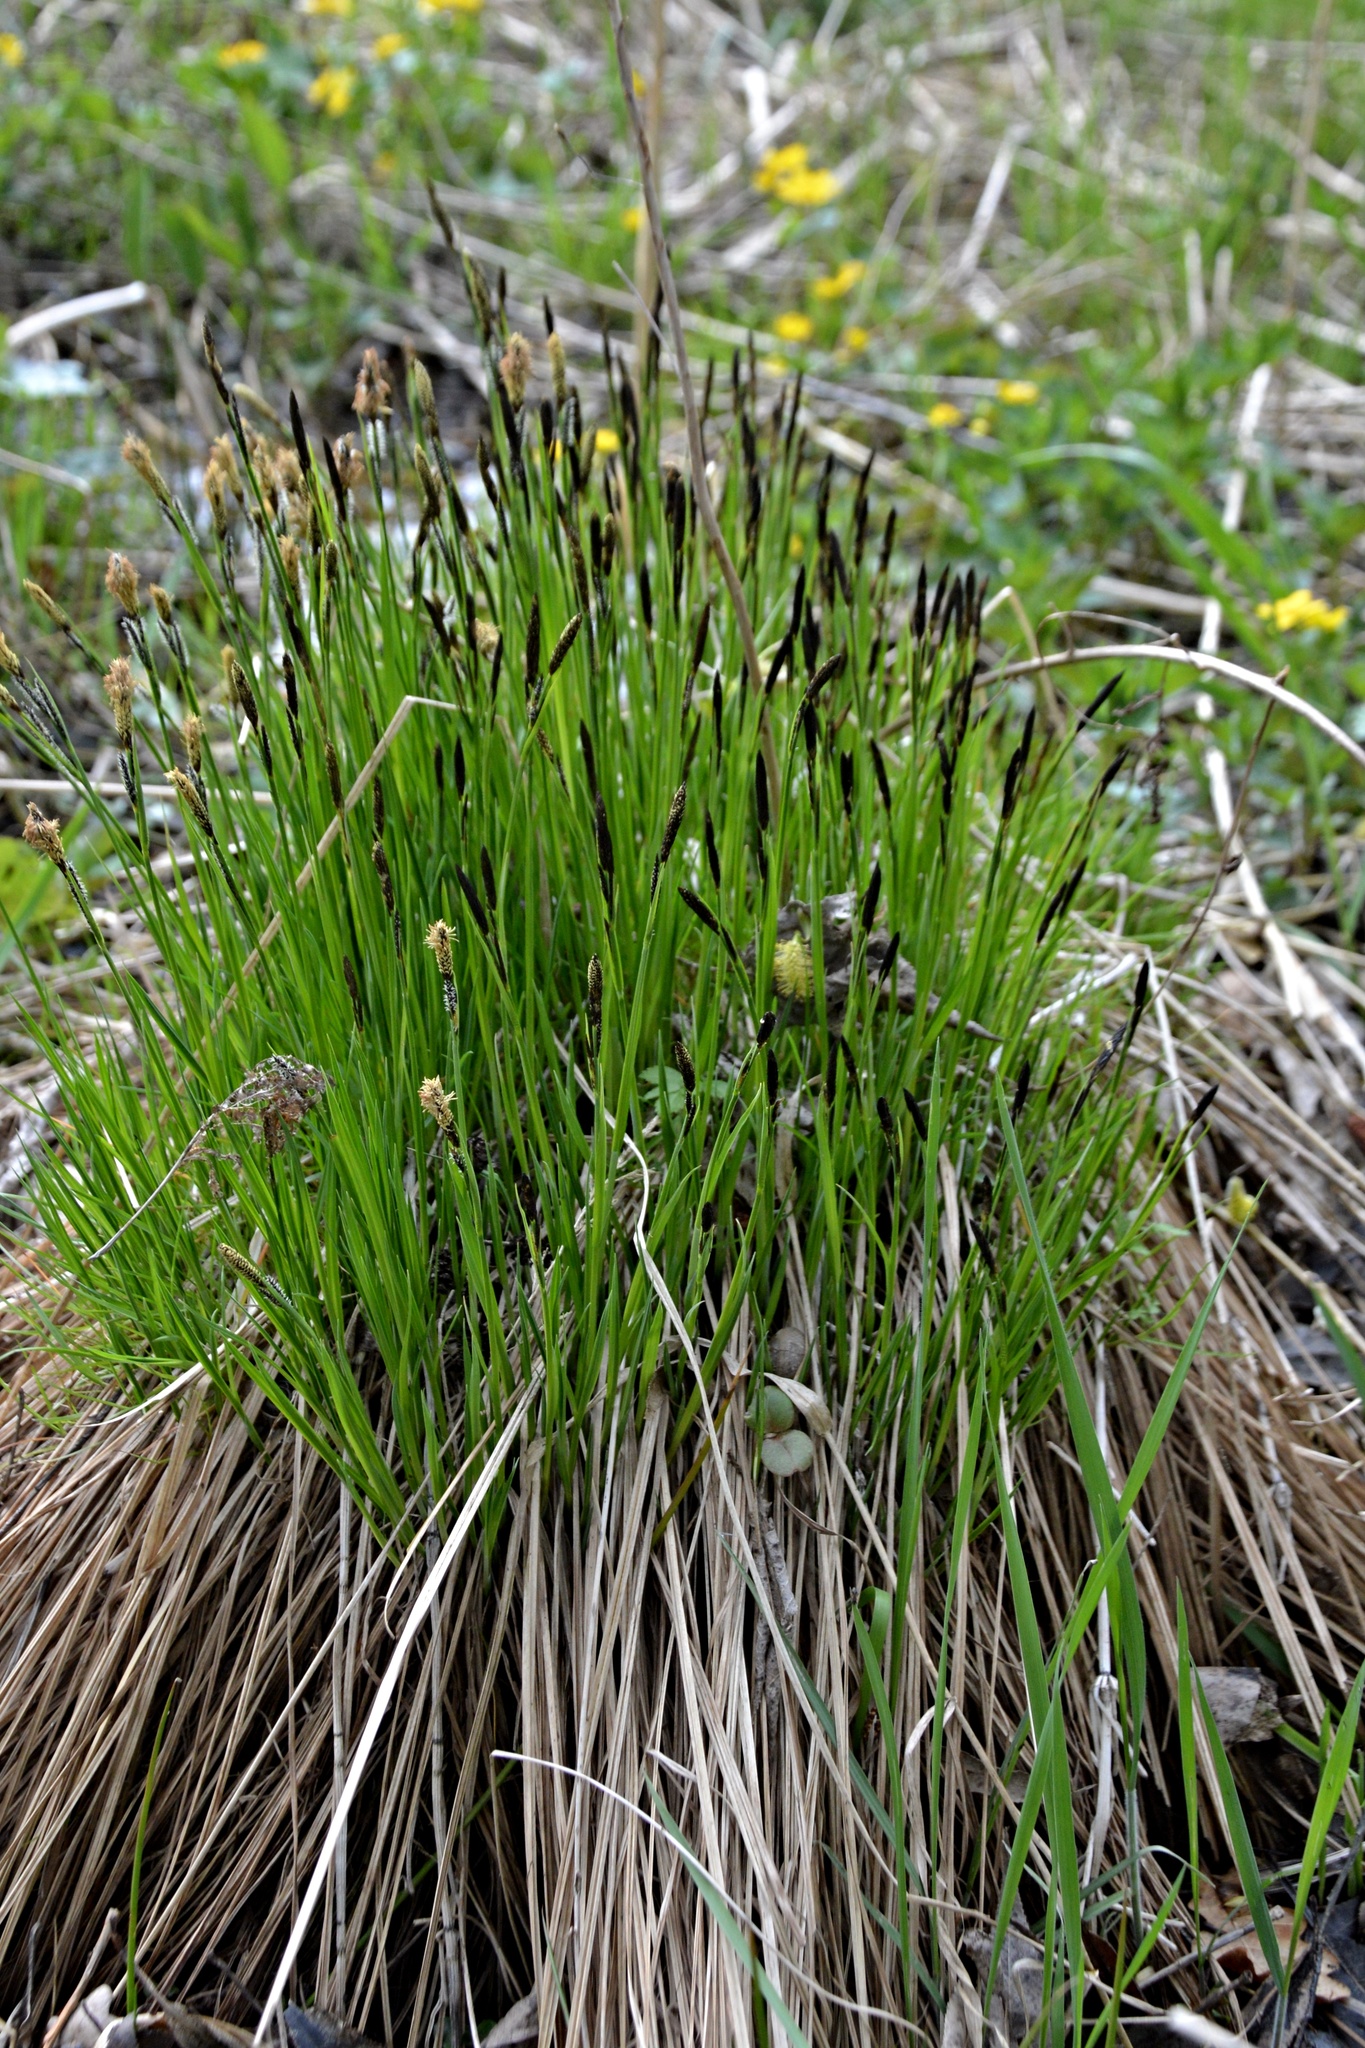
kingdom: Plantae
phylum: Tracheophyta
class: Liliopsida
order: Poales
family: Cyperaceae
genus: Carex
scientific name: Carex cespitosa
